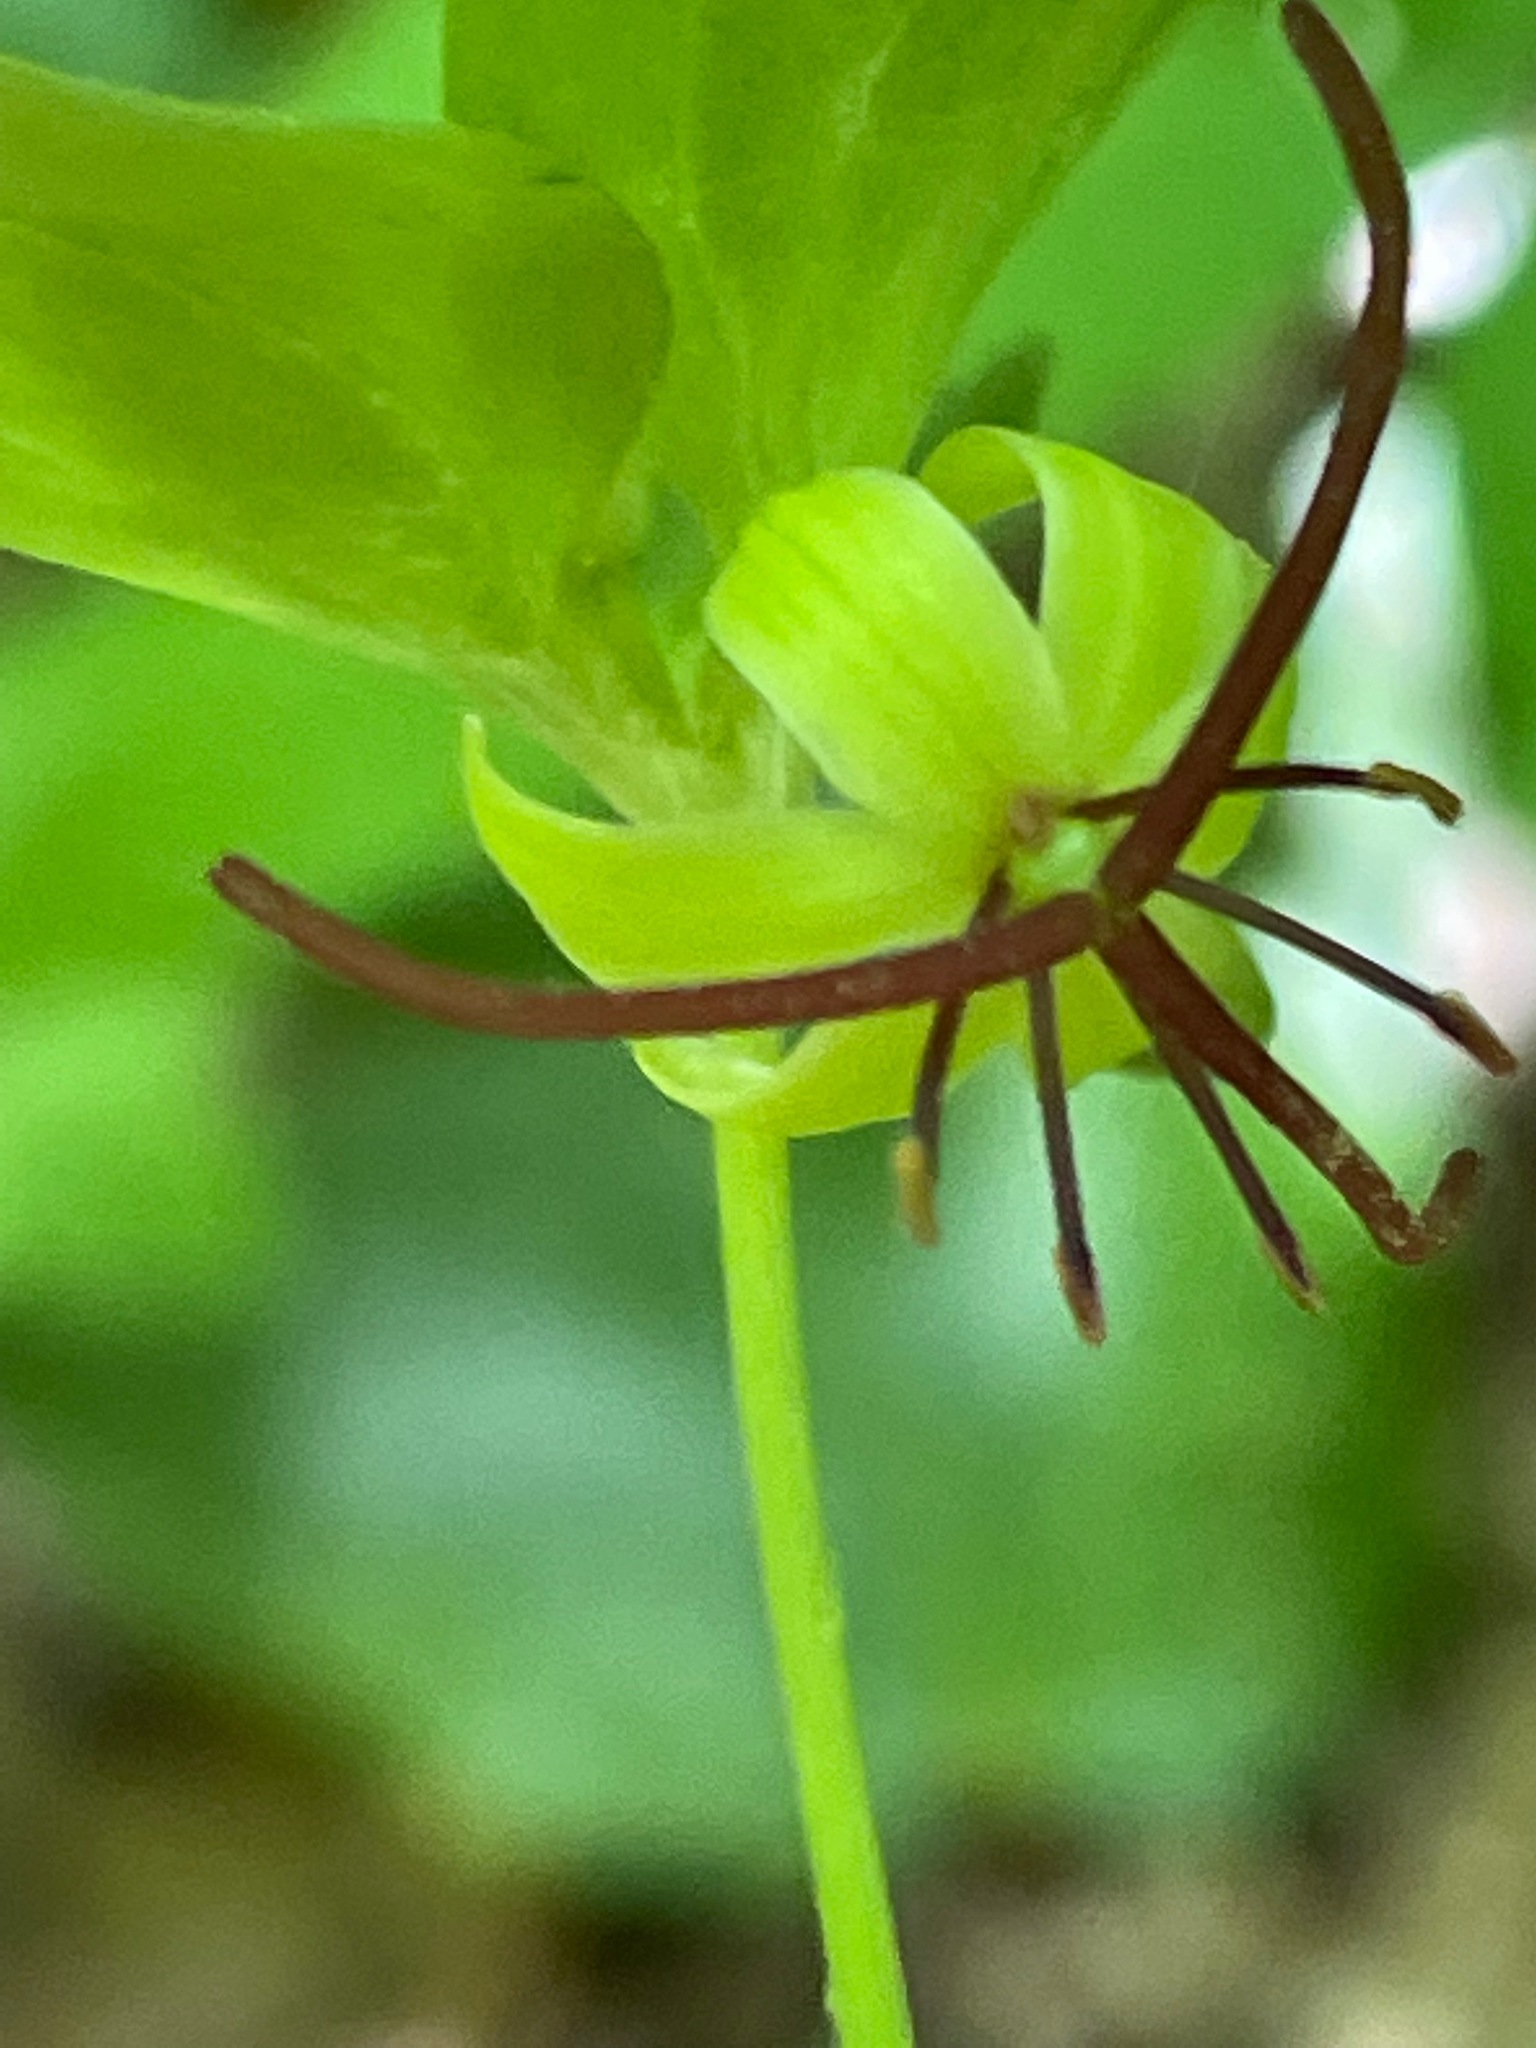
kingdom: Plantae
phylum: Tracheophyta
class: Liliopsida
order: Liliales
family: Liliaceae
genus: Medeola
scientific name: Medeola virginiana
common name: Indian cucumber-root
